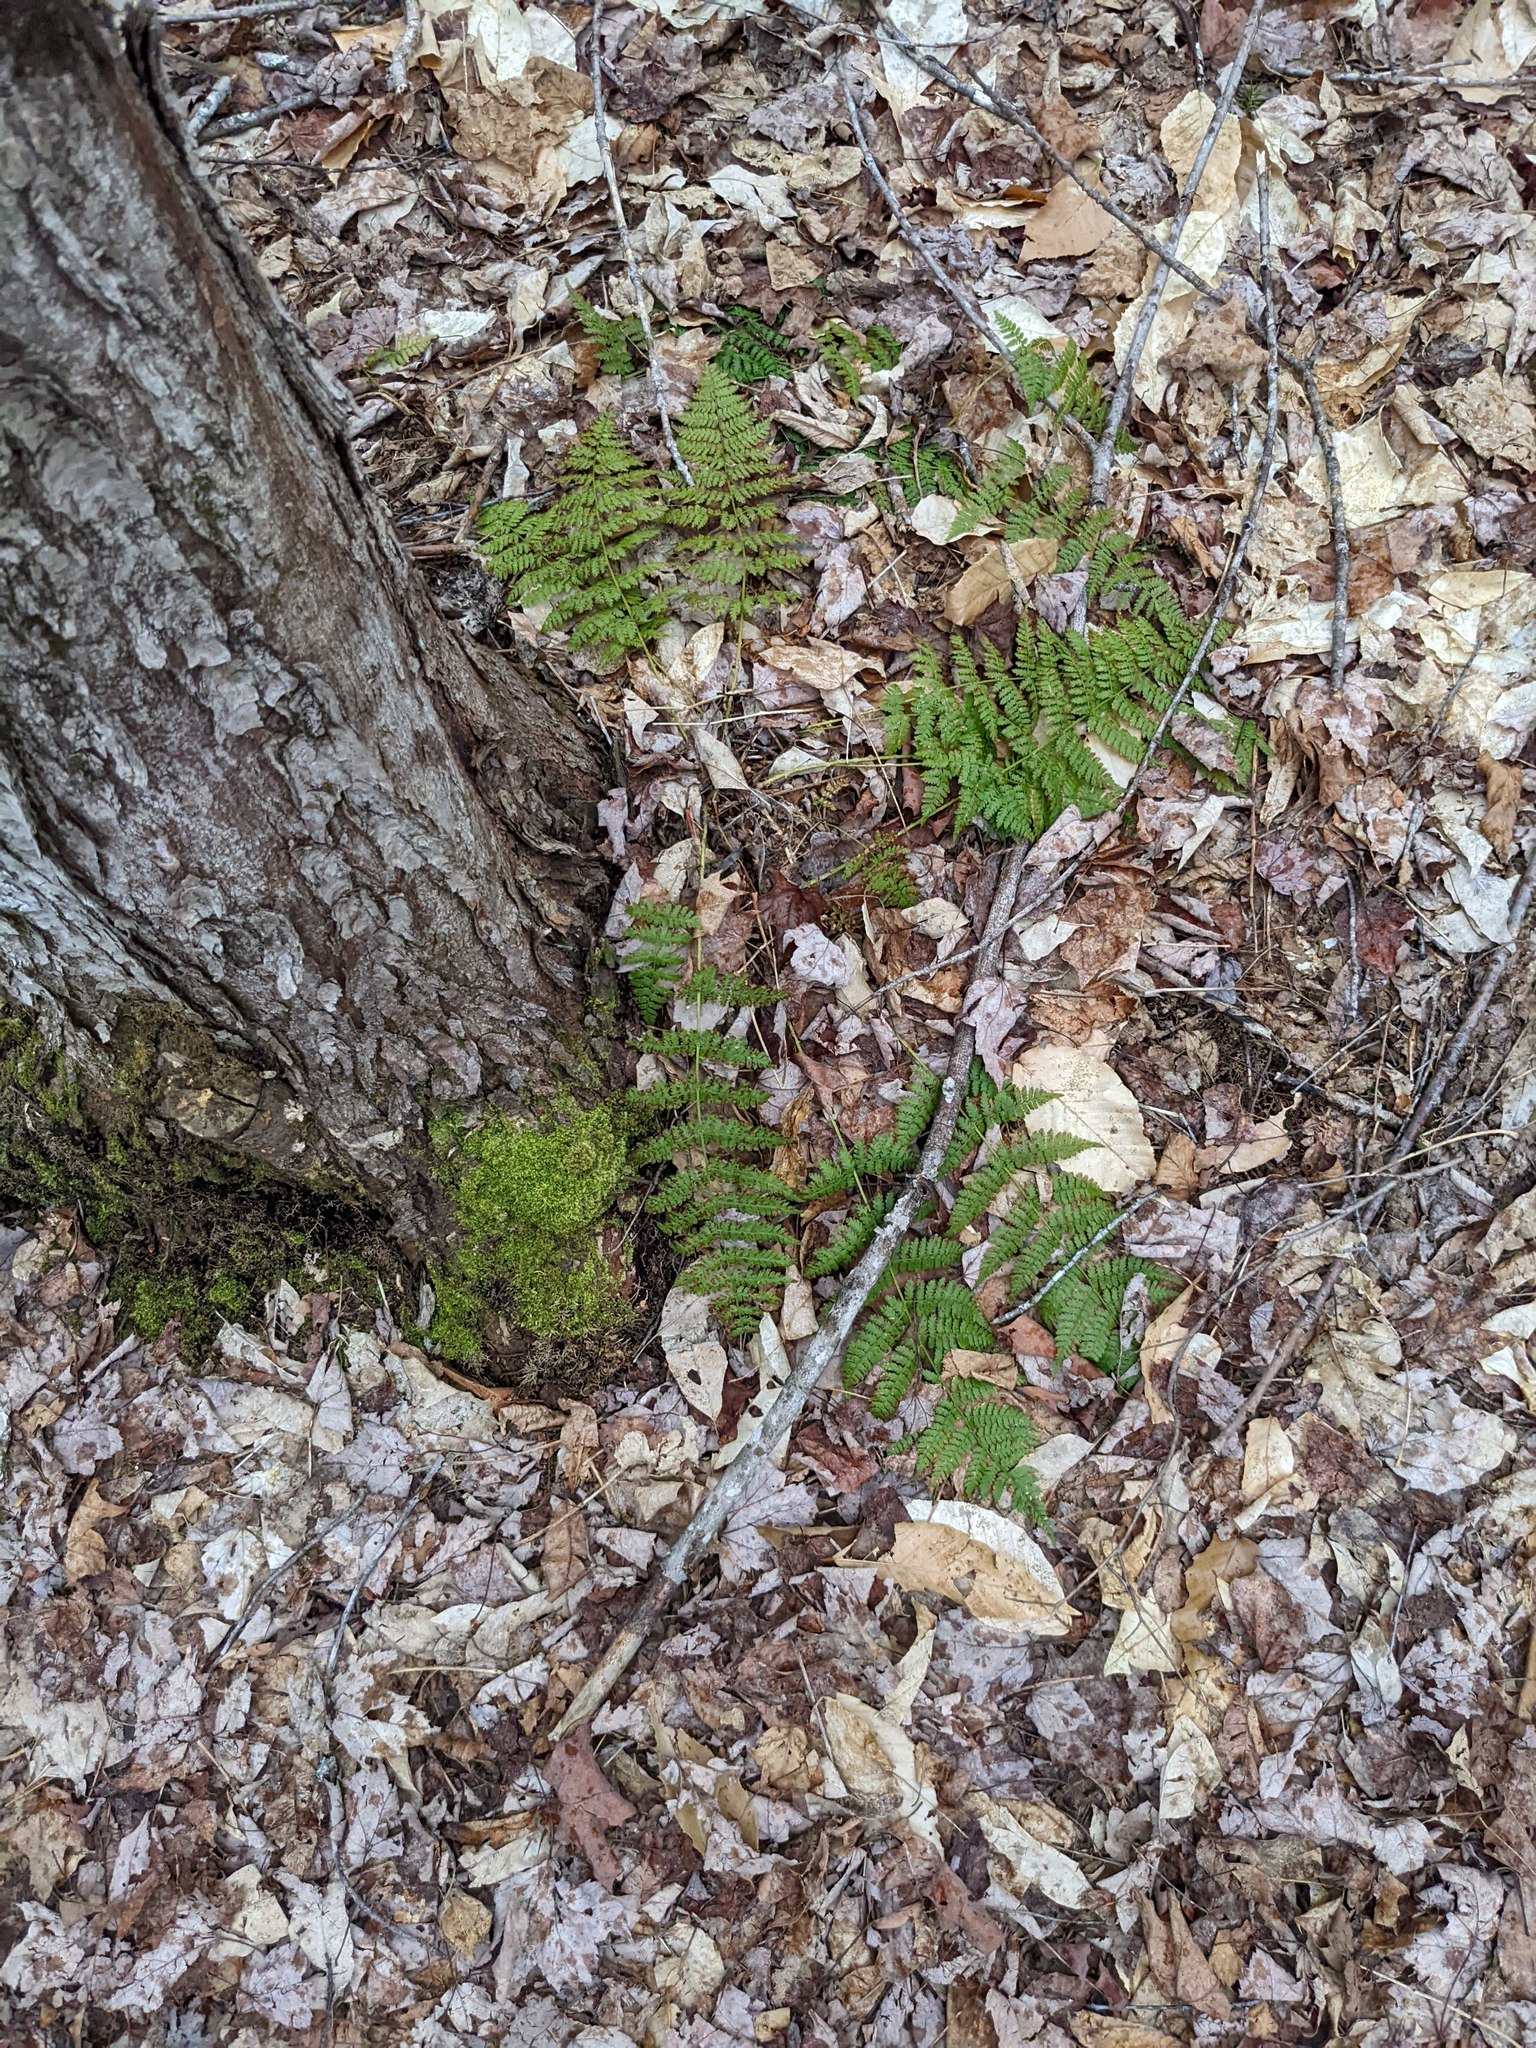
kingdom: Plantae
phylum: Tracheophyta
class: Polypodiopsida
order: Polypodiales
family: Dryopteridaceae
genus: Dryopteris
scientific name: Dryopteris intermedia
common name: Evergreen wood fern
